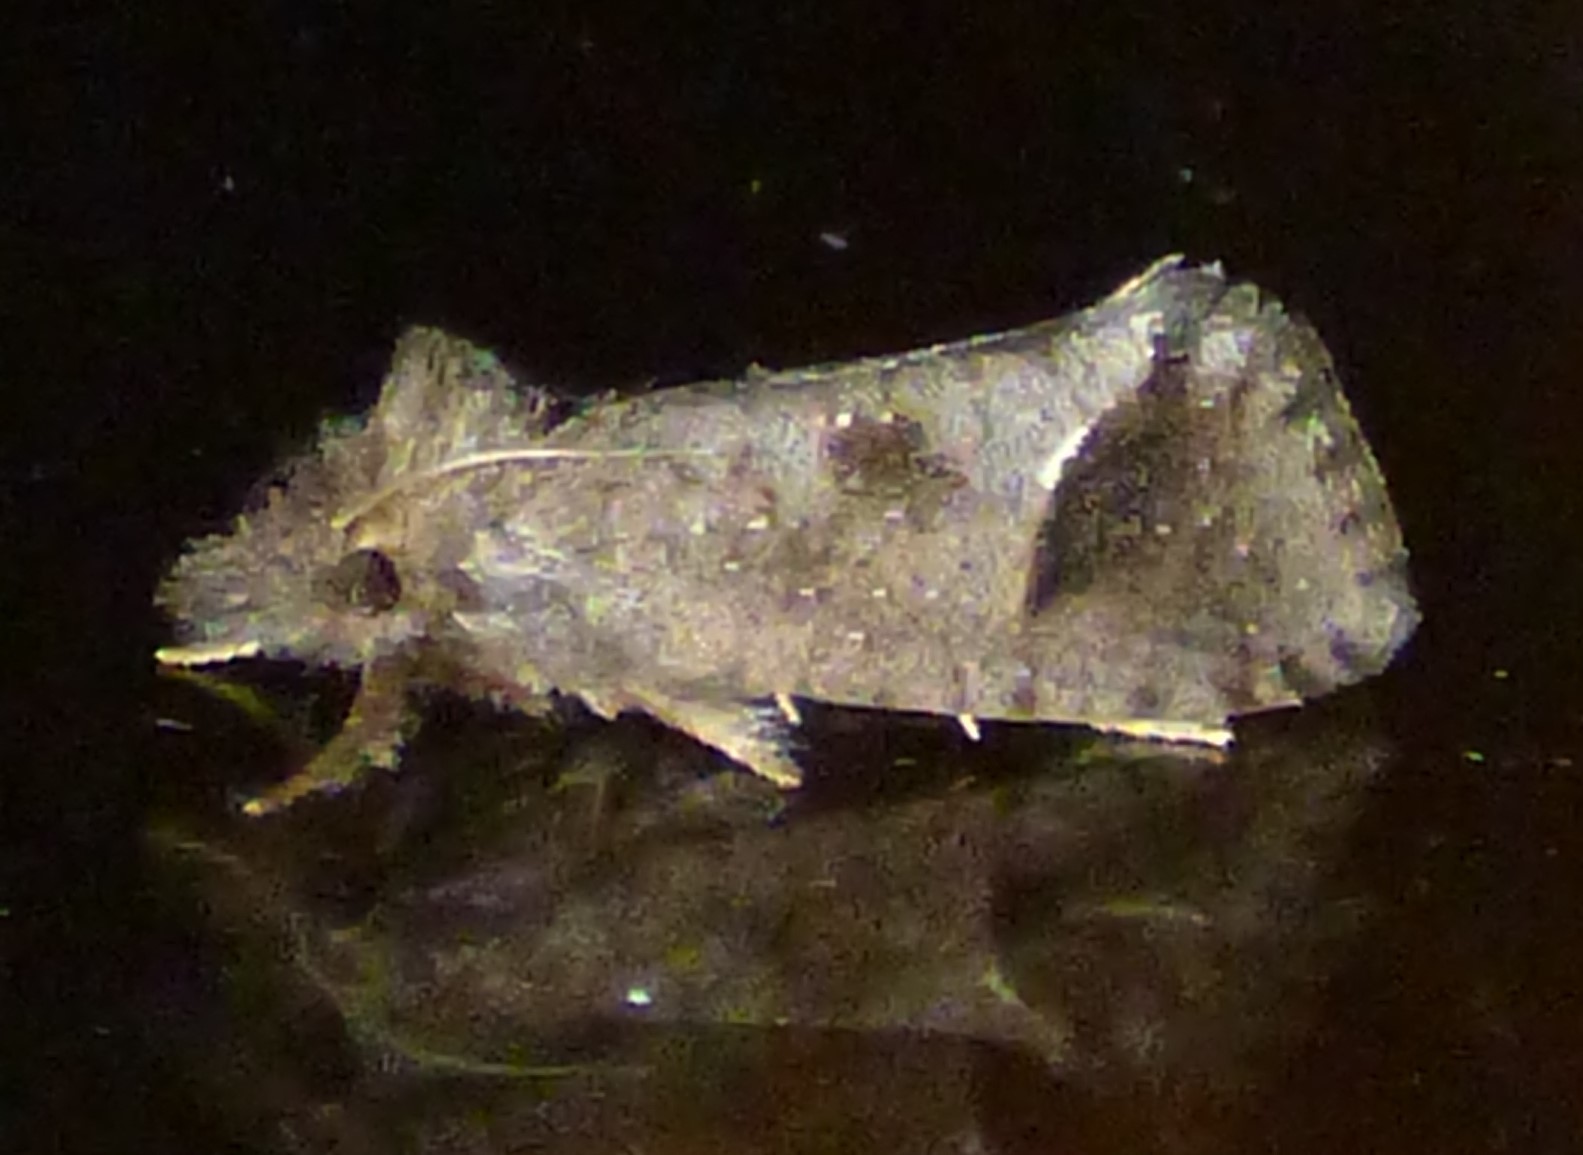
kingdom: Animalia
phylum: Arthropoda
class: Insecta
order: Lepidoptera
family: Tineidae
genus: Acrolophus
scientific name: Acrolophus texanella
